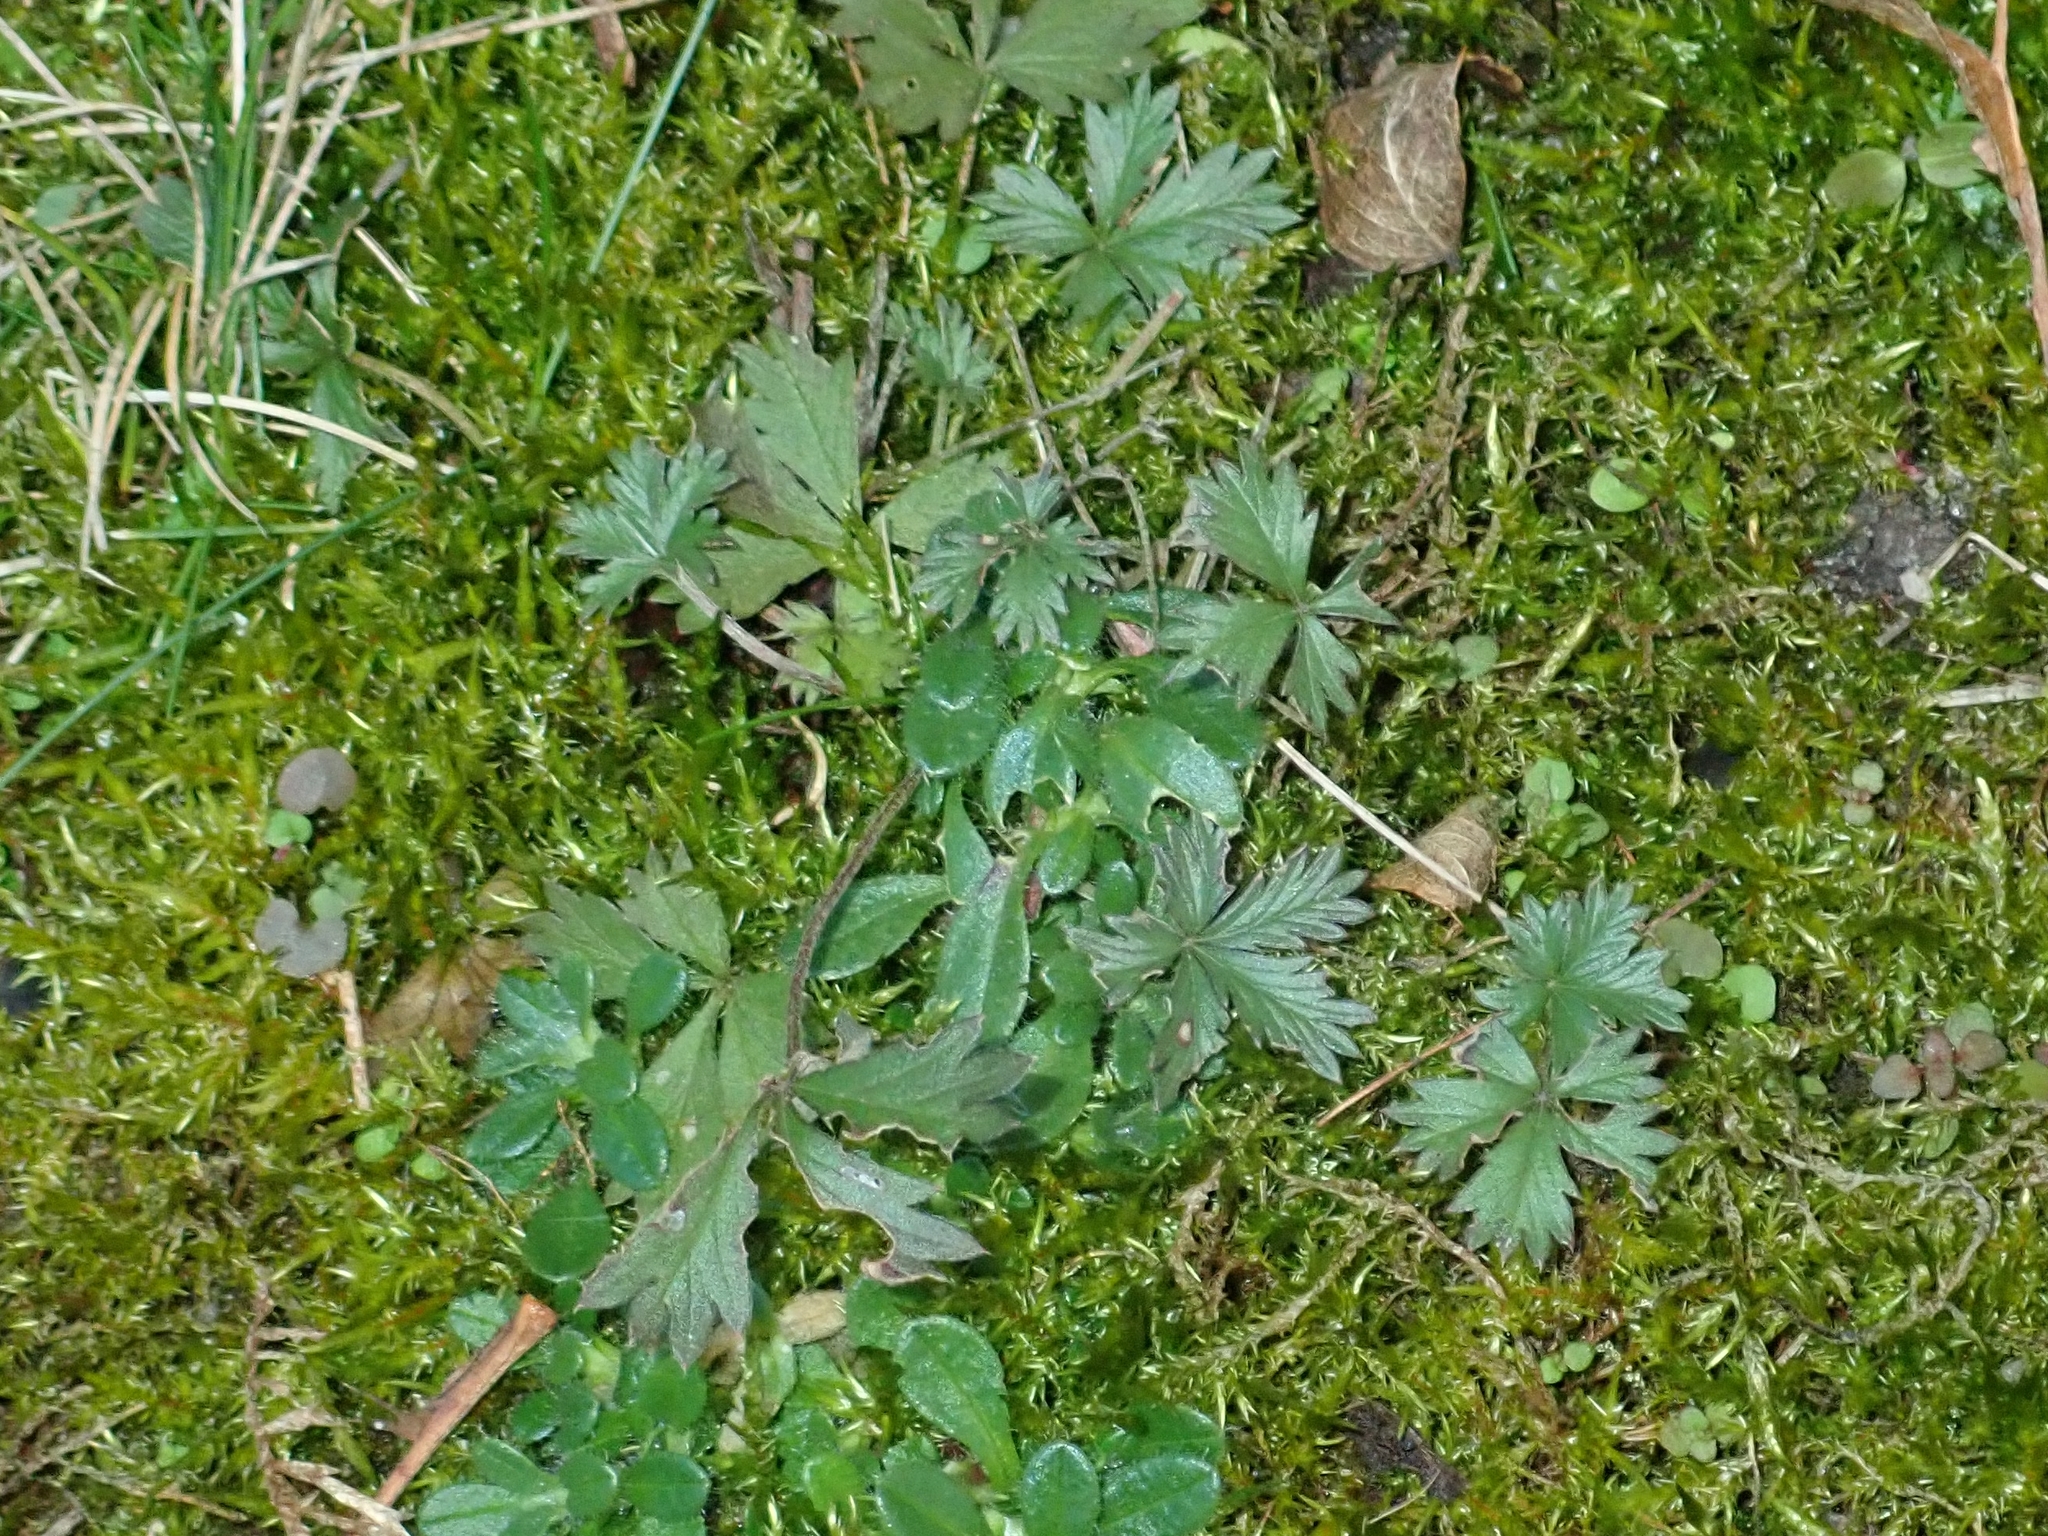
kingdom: Plantae
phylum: Tracheophyta
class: Magnoliopsida
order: Rosales
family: Rosaceae
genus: Potentilla
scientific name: Potentilla argentea
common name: Hoary cinquefoil
